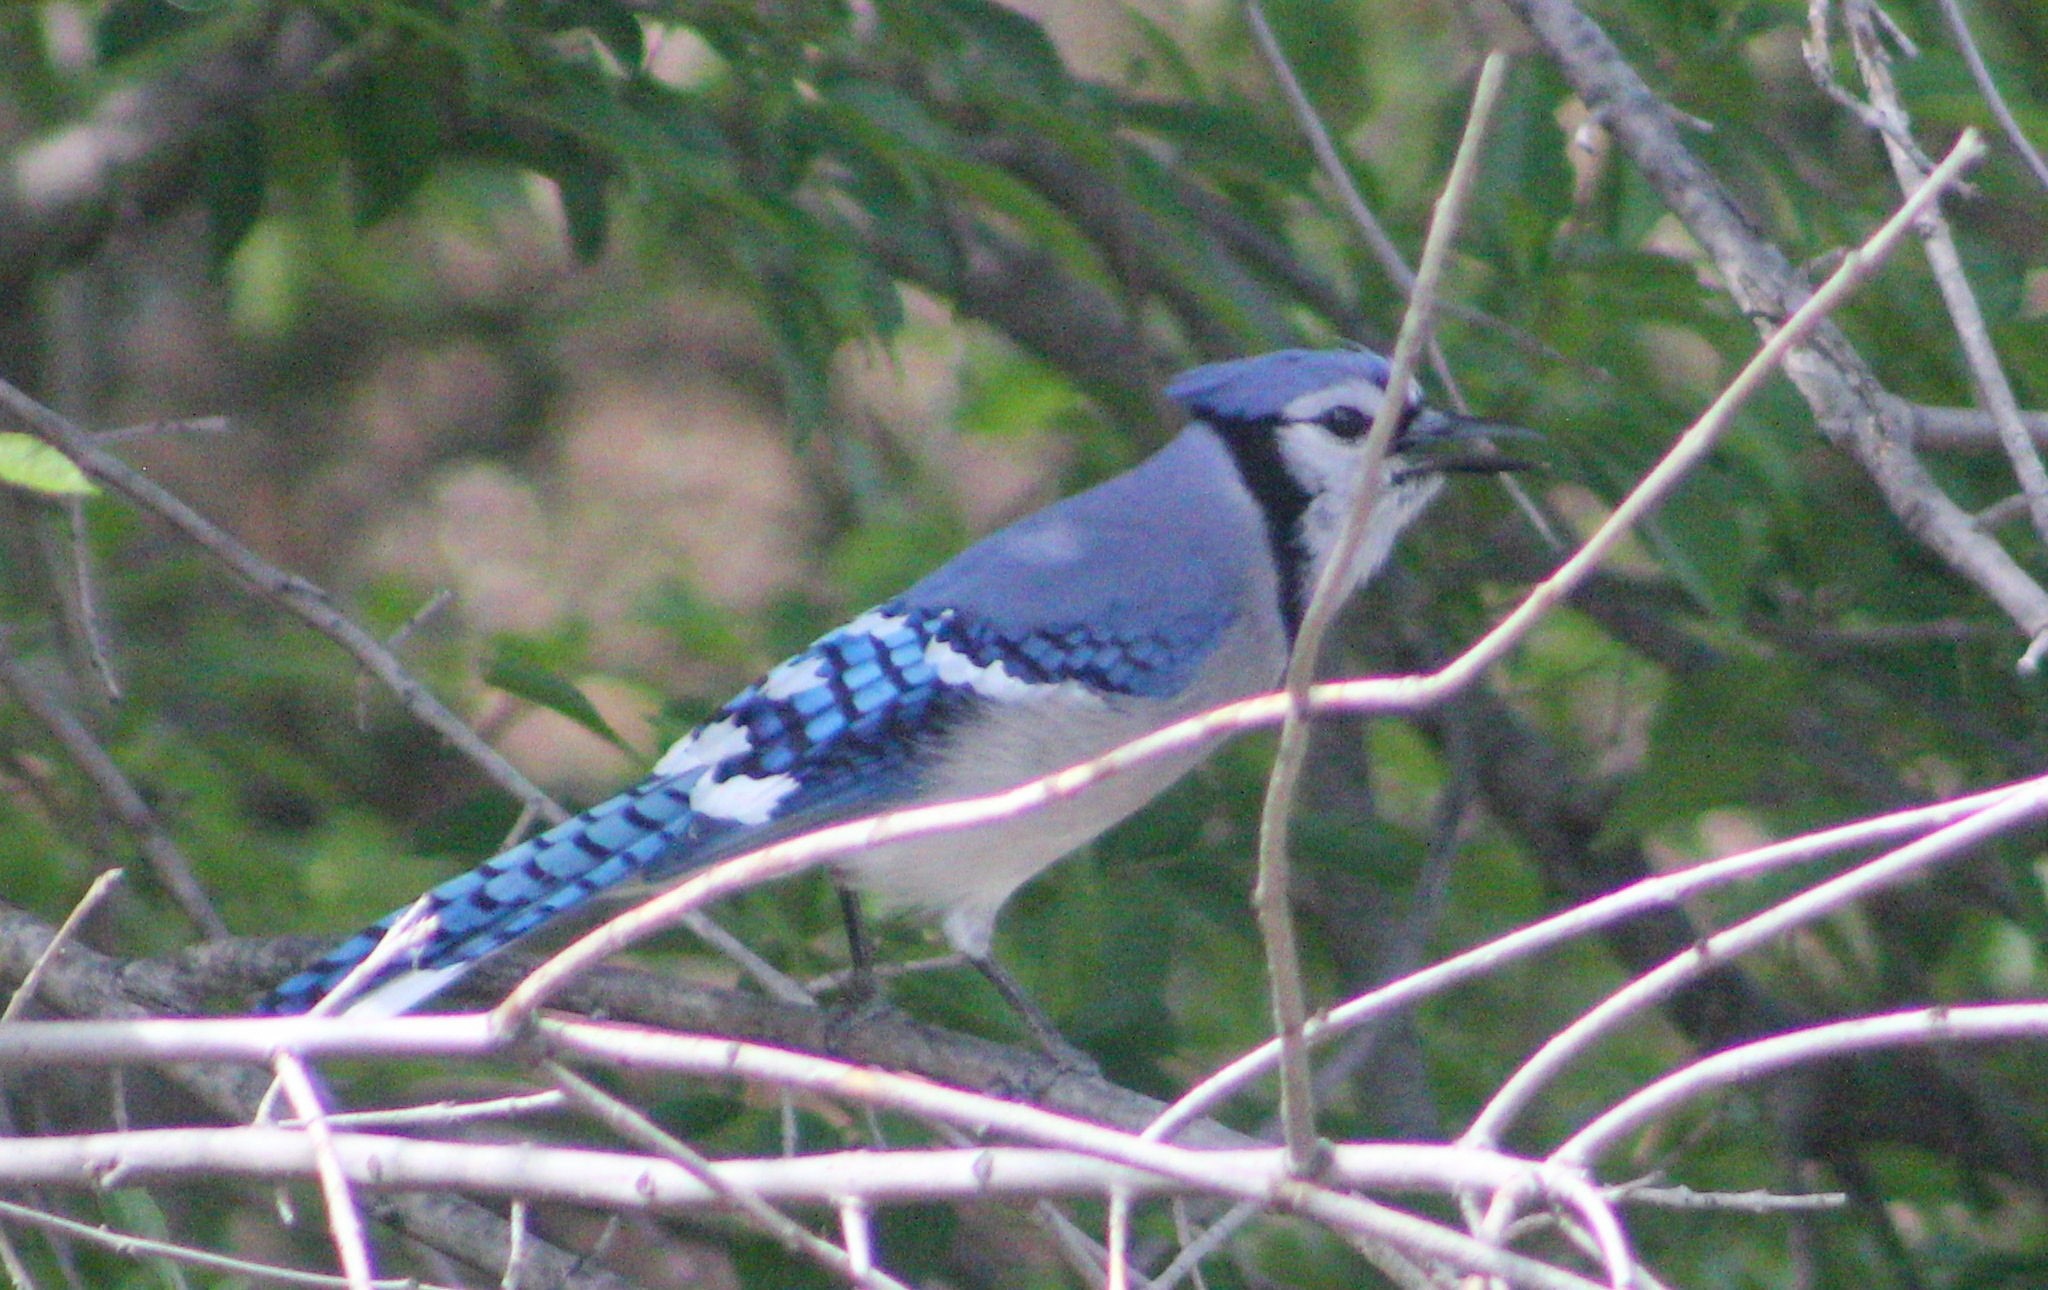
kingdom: Animalia
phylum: Chordata
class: Aves
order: Passeriformes
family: Corvidae
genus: Cyanocitta
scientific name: Cyanocitta cristata
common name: Blue jay
